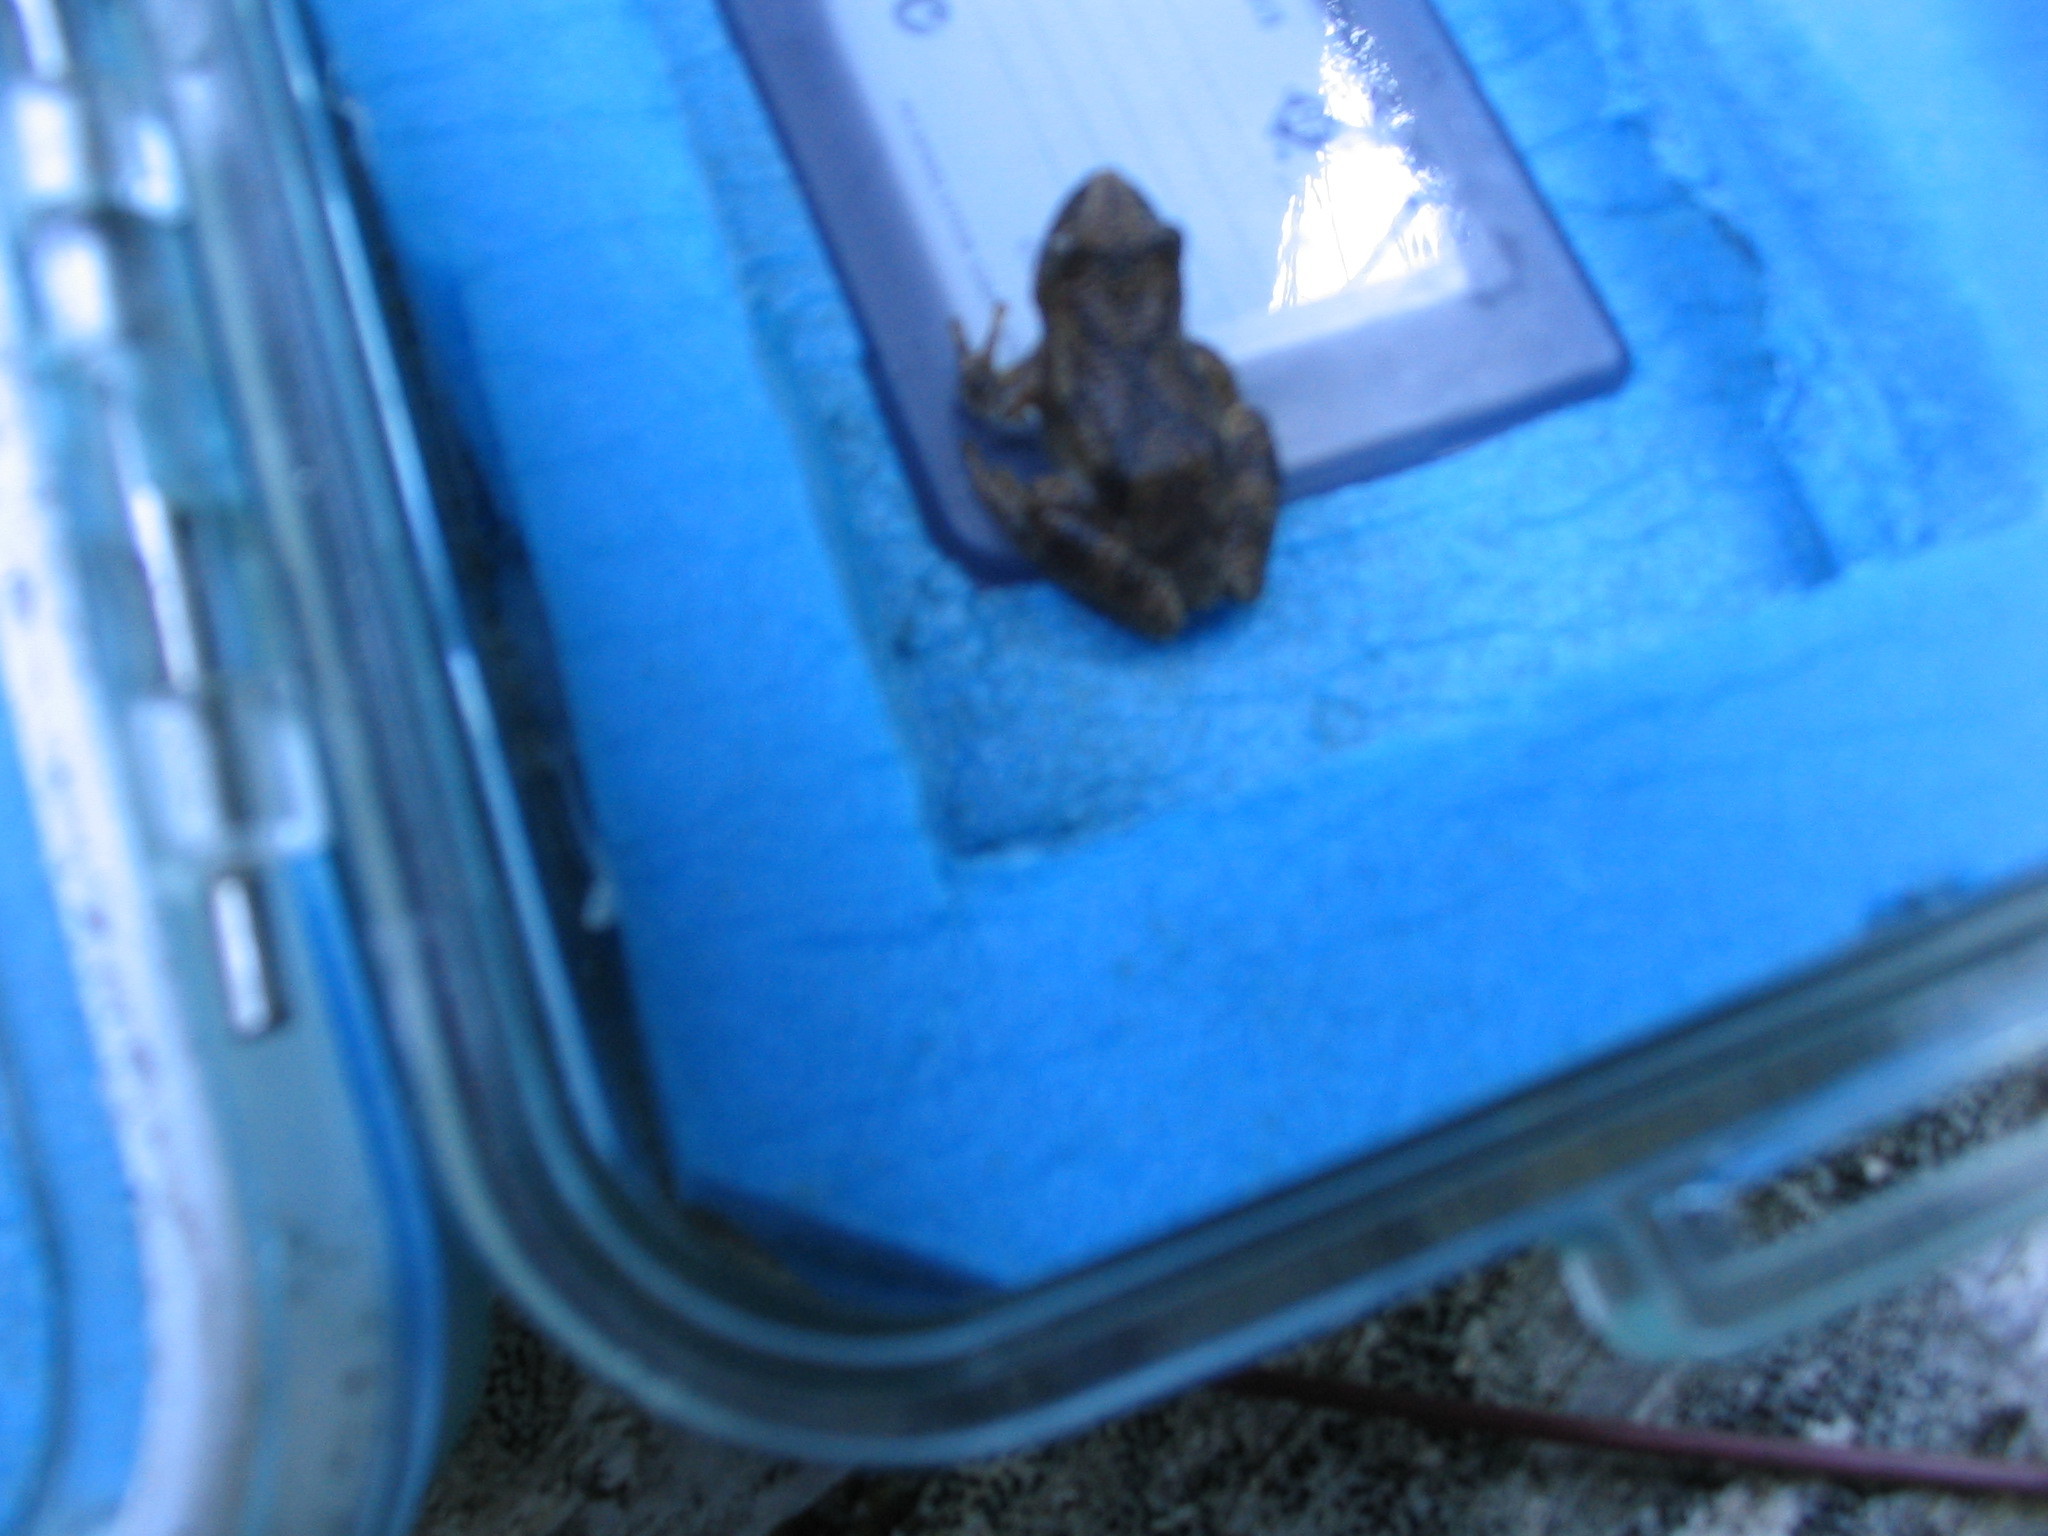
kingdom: Animalia
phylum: Chordata
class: Amphibia
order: Anura
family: Hylidae
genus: Pseudacris
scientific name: Pseudacris crucifer
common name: Spring peeper
